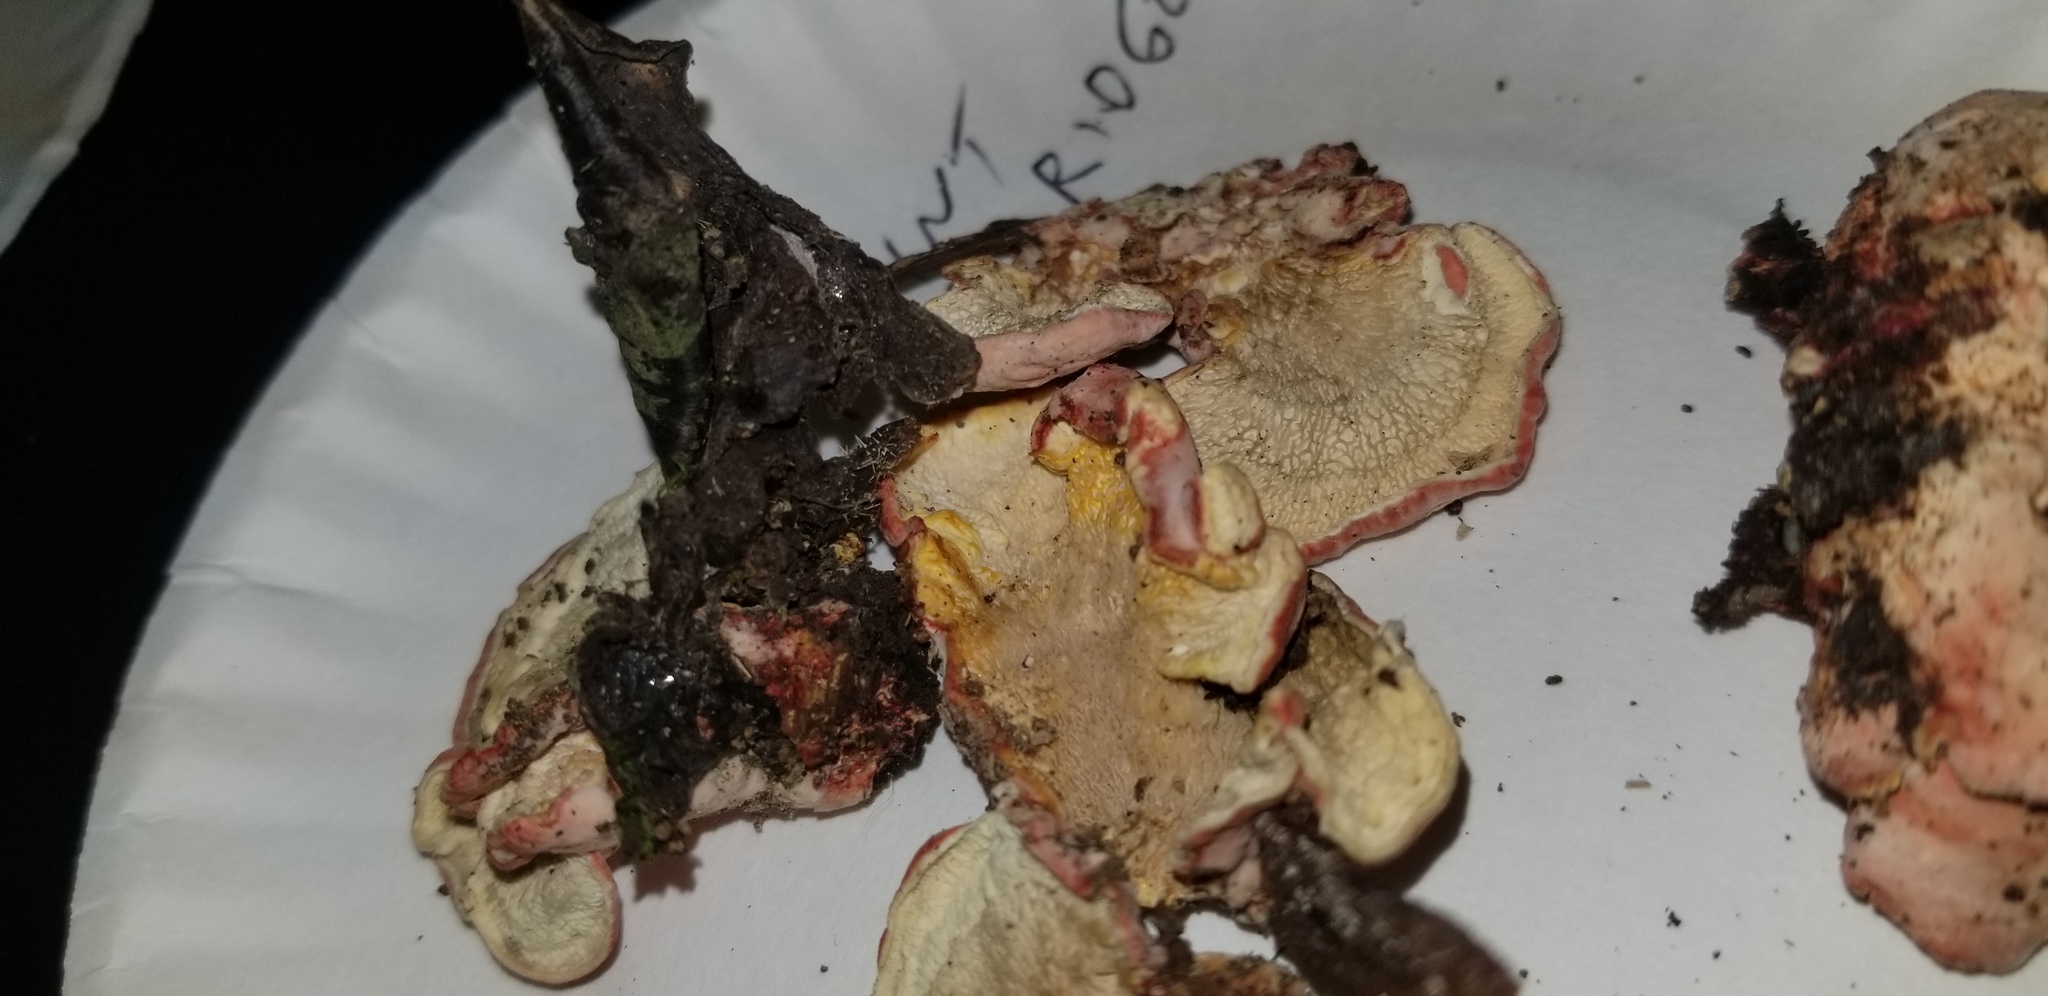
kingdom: Fungi
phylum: Basidiomycota
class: Agaricomycetes
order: Polyporales
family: Irpicaceae
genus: Byssomerulius
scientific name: Byssomerulius incarnatus
